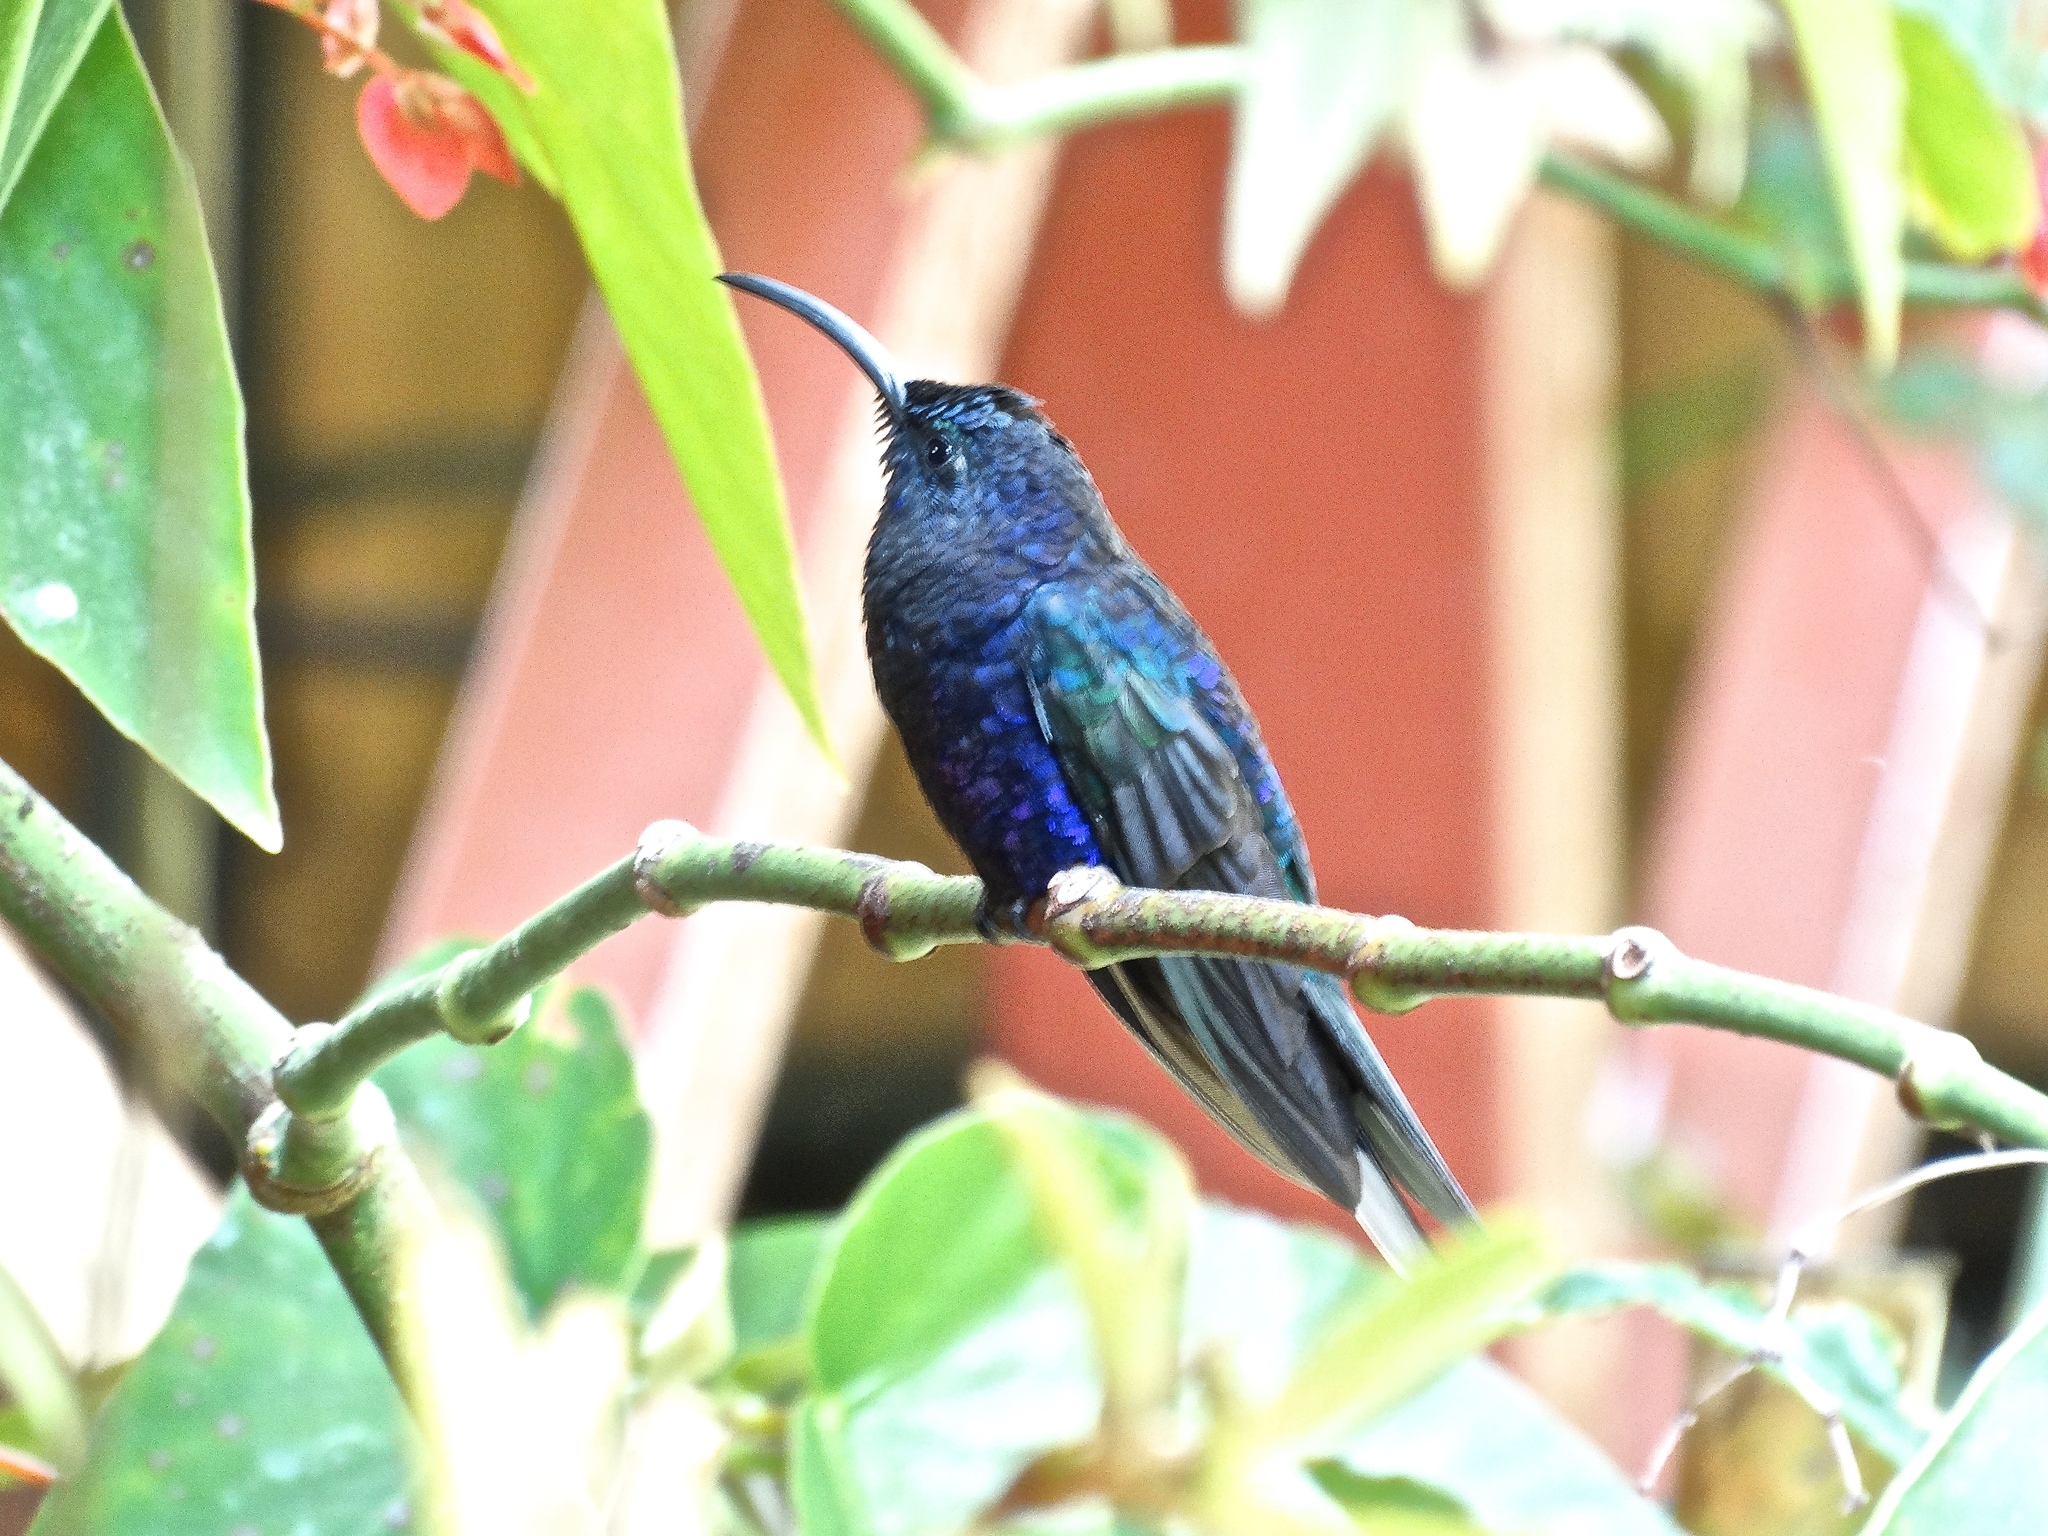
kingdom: Animalia
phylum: Chordata
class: Aves
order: Apodiformes
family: Trochilidae
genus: Campylopterus
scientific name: Campylopterus hemileucurus
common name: Violet sabrewing
